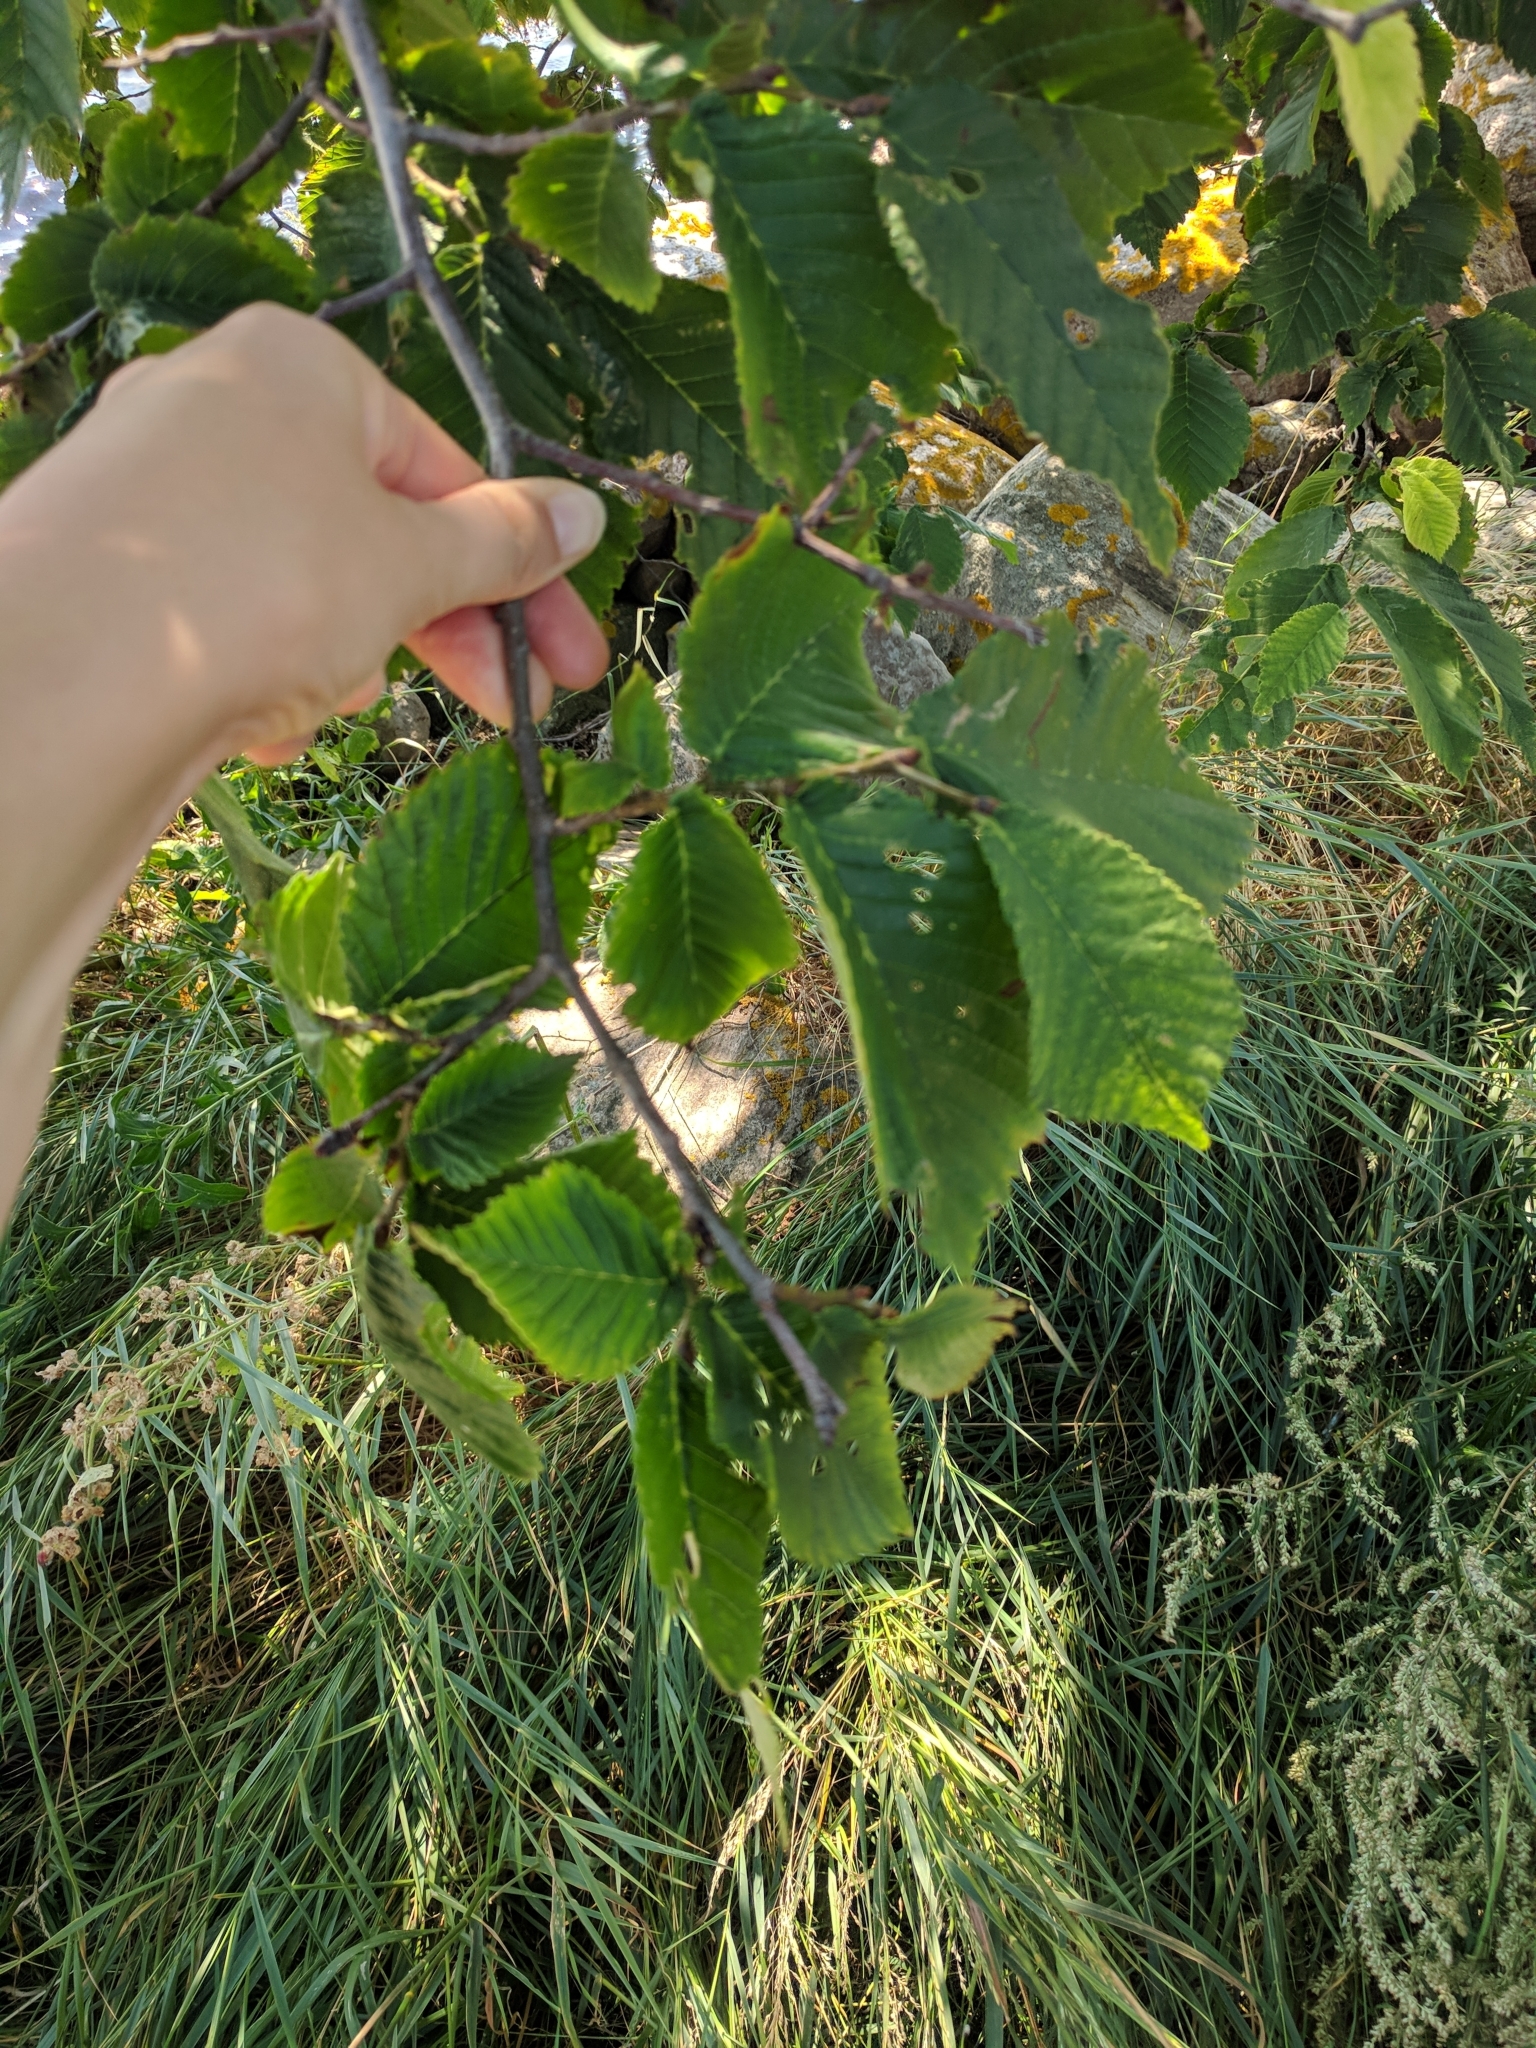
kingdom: Plantae
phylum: Tracheophyta
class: Magnoliopsida
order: Rosales
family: Ulmaceae
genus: Ulmus
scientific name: Ulmus glabra
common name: Wych elm
